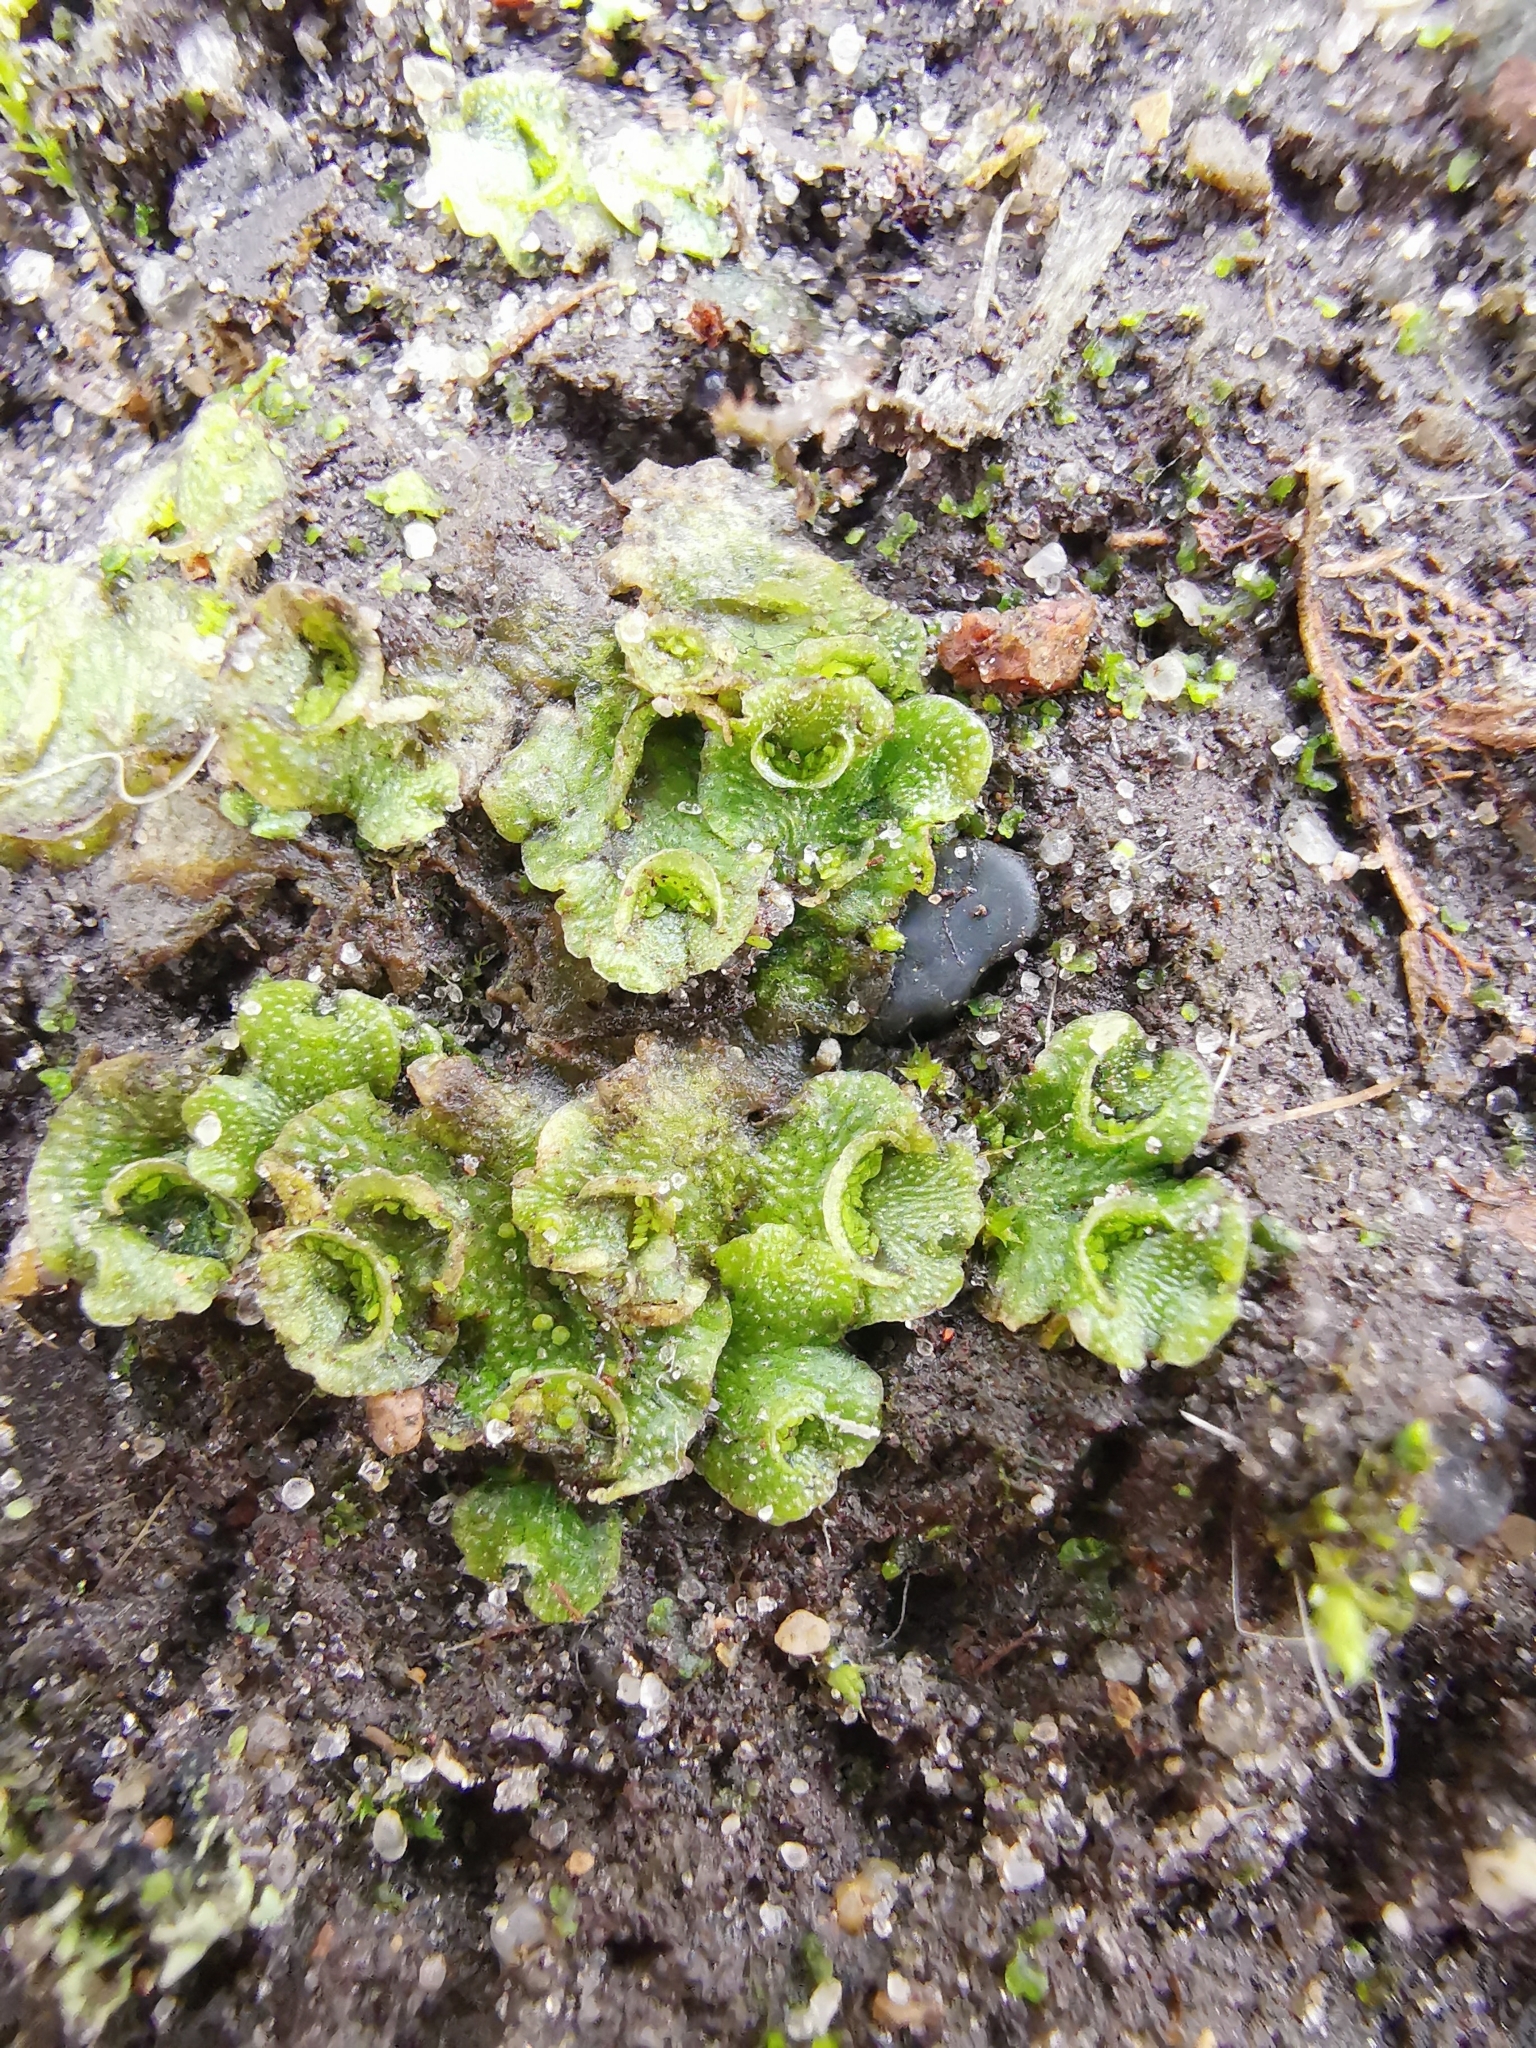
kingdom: Plantae
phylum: Marchantiophyta
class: Marchantiopsida
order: Lunulariales
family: Lunulariaceae
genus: Lunularia
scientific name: Lunularia cruciata
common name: Crescent-cup liverwort
